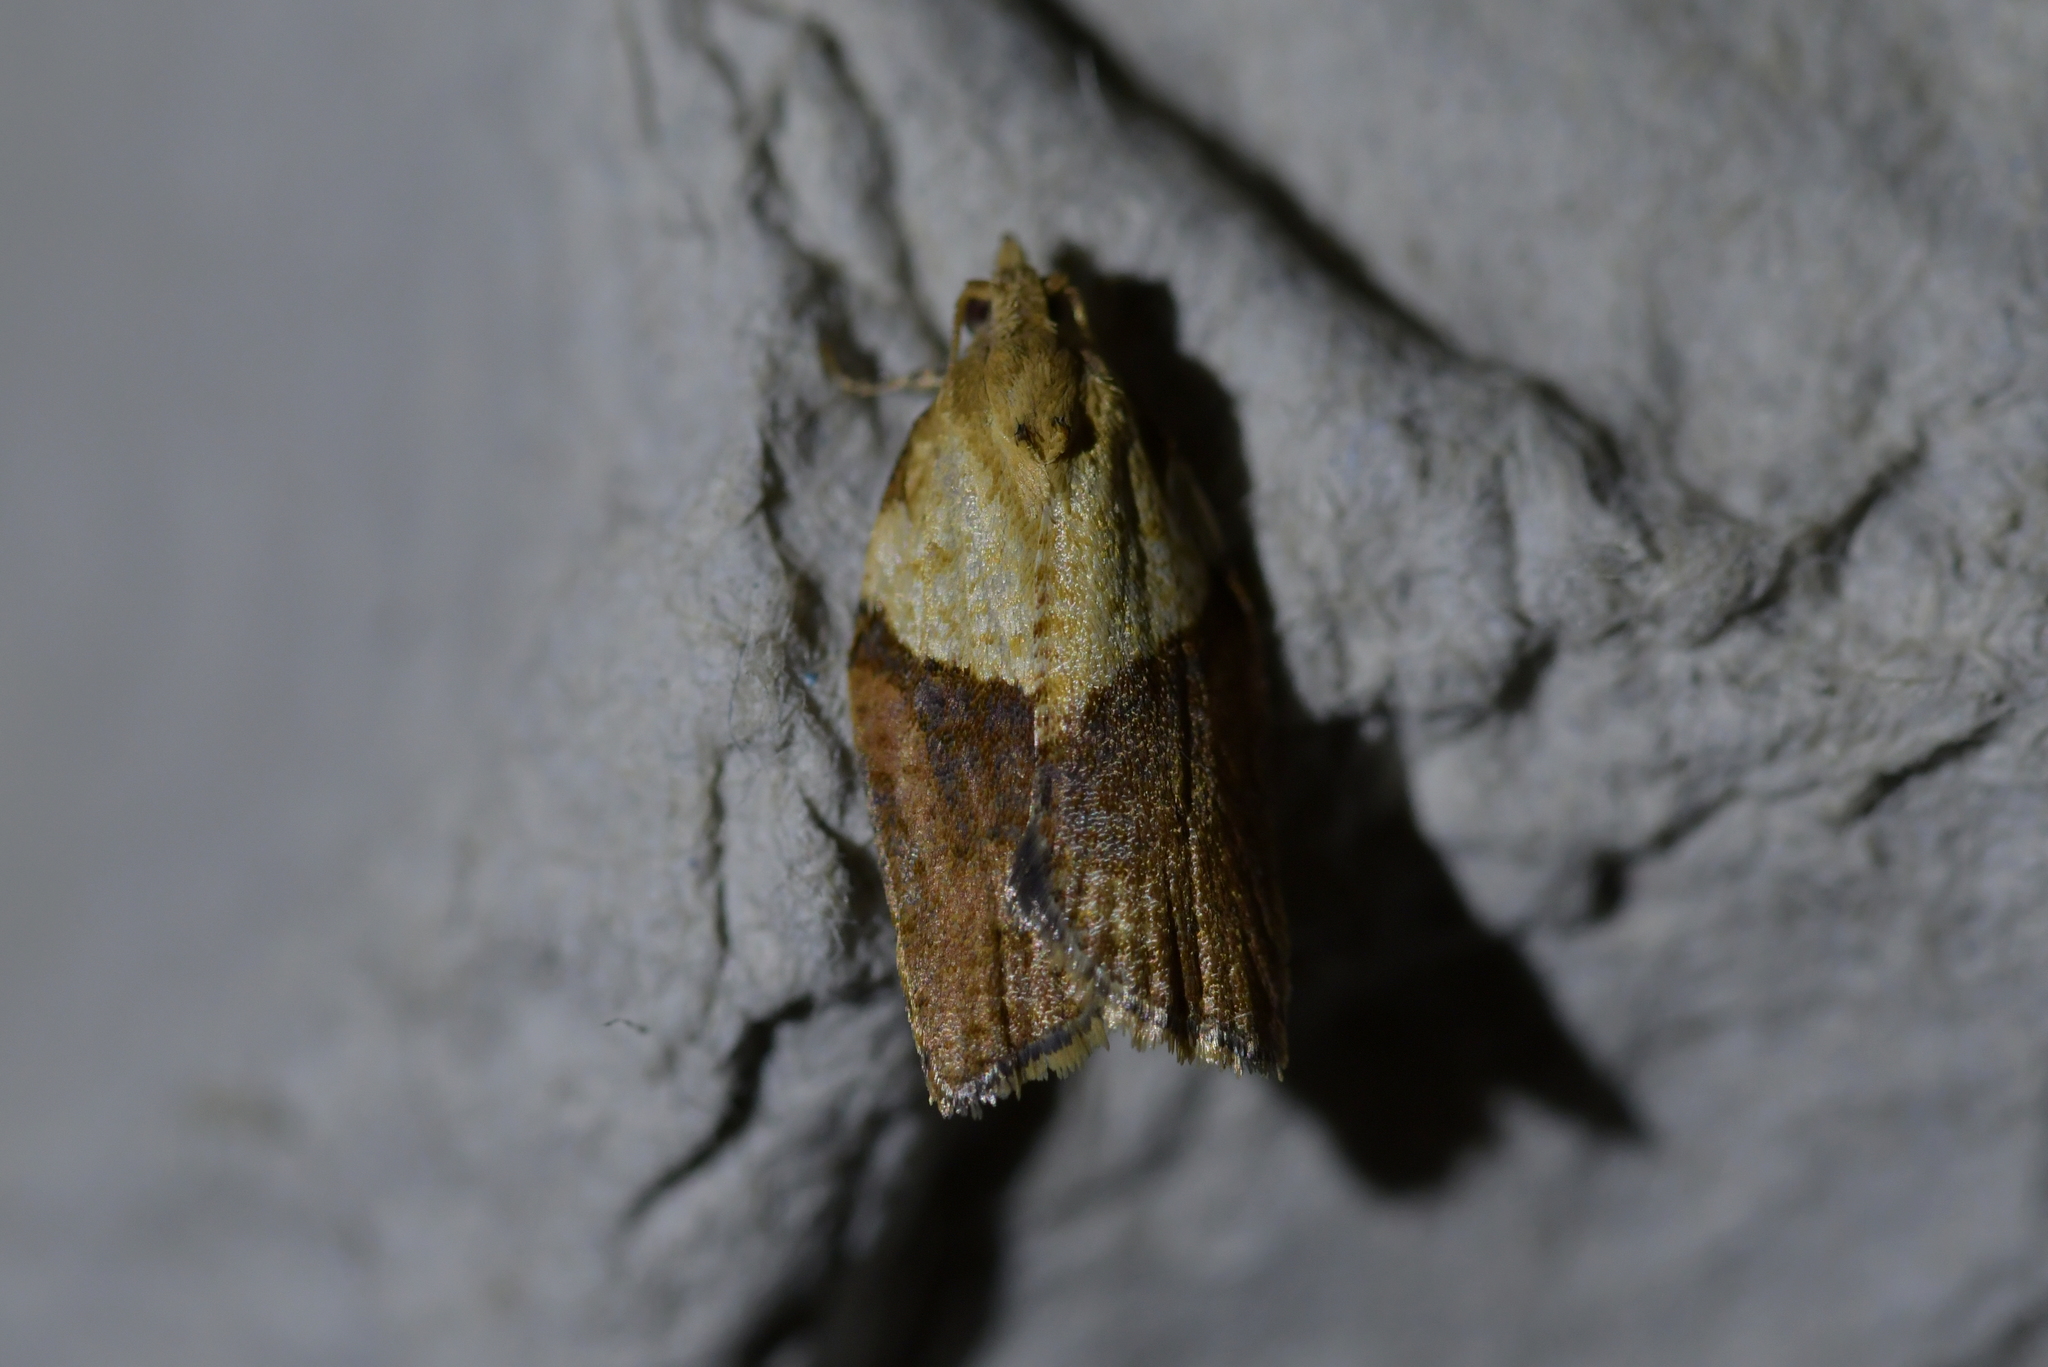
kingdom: Animalia
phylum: Arthropoda
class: Insecta
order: Lepidoptera
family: Tortricidae
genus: Epiphyas
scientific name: Epiphyas postvittana
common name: Light brown apple moth
